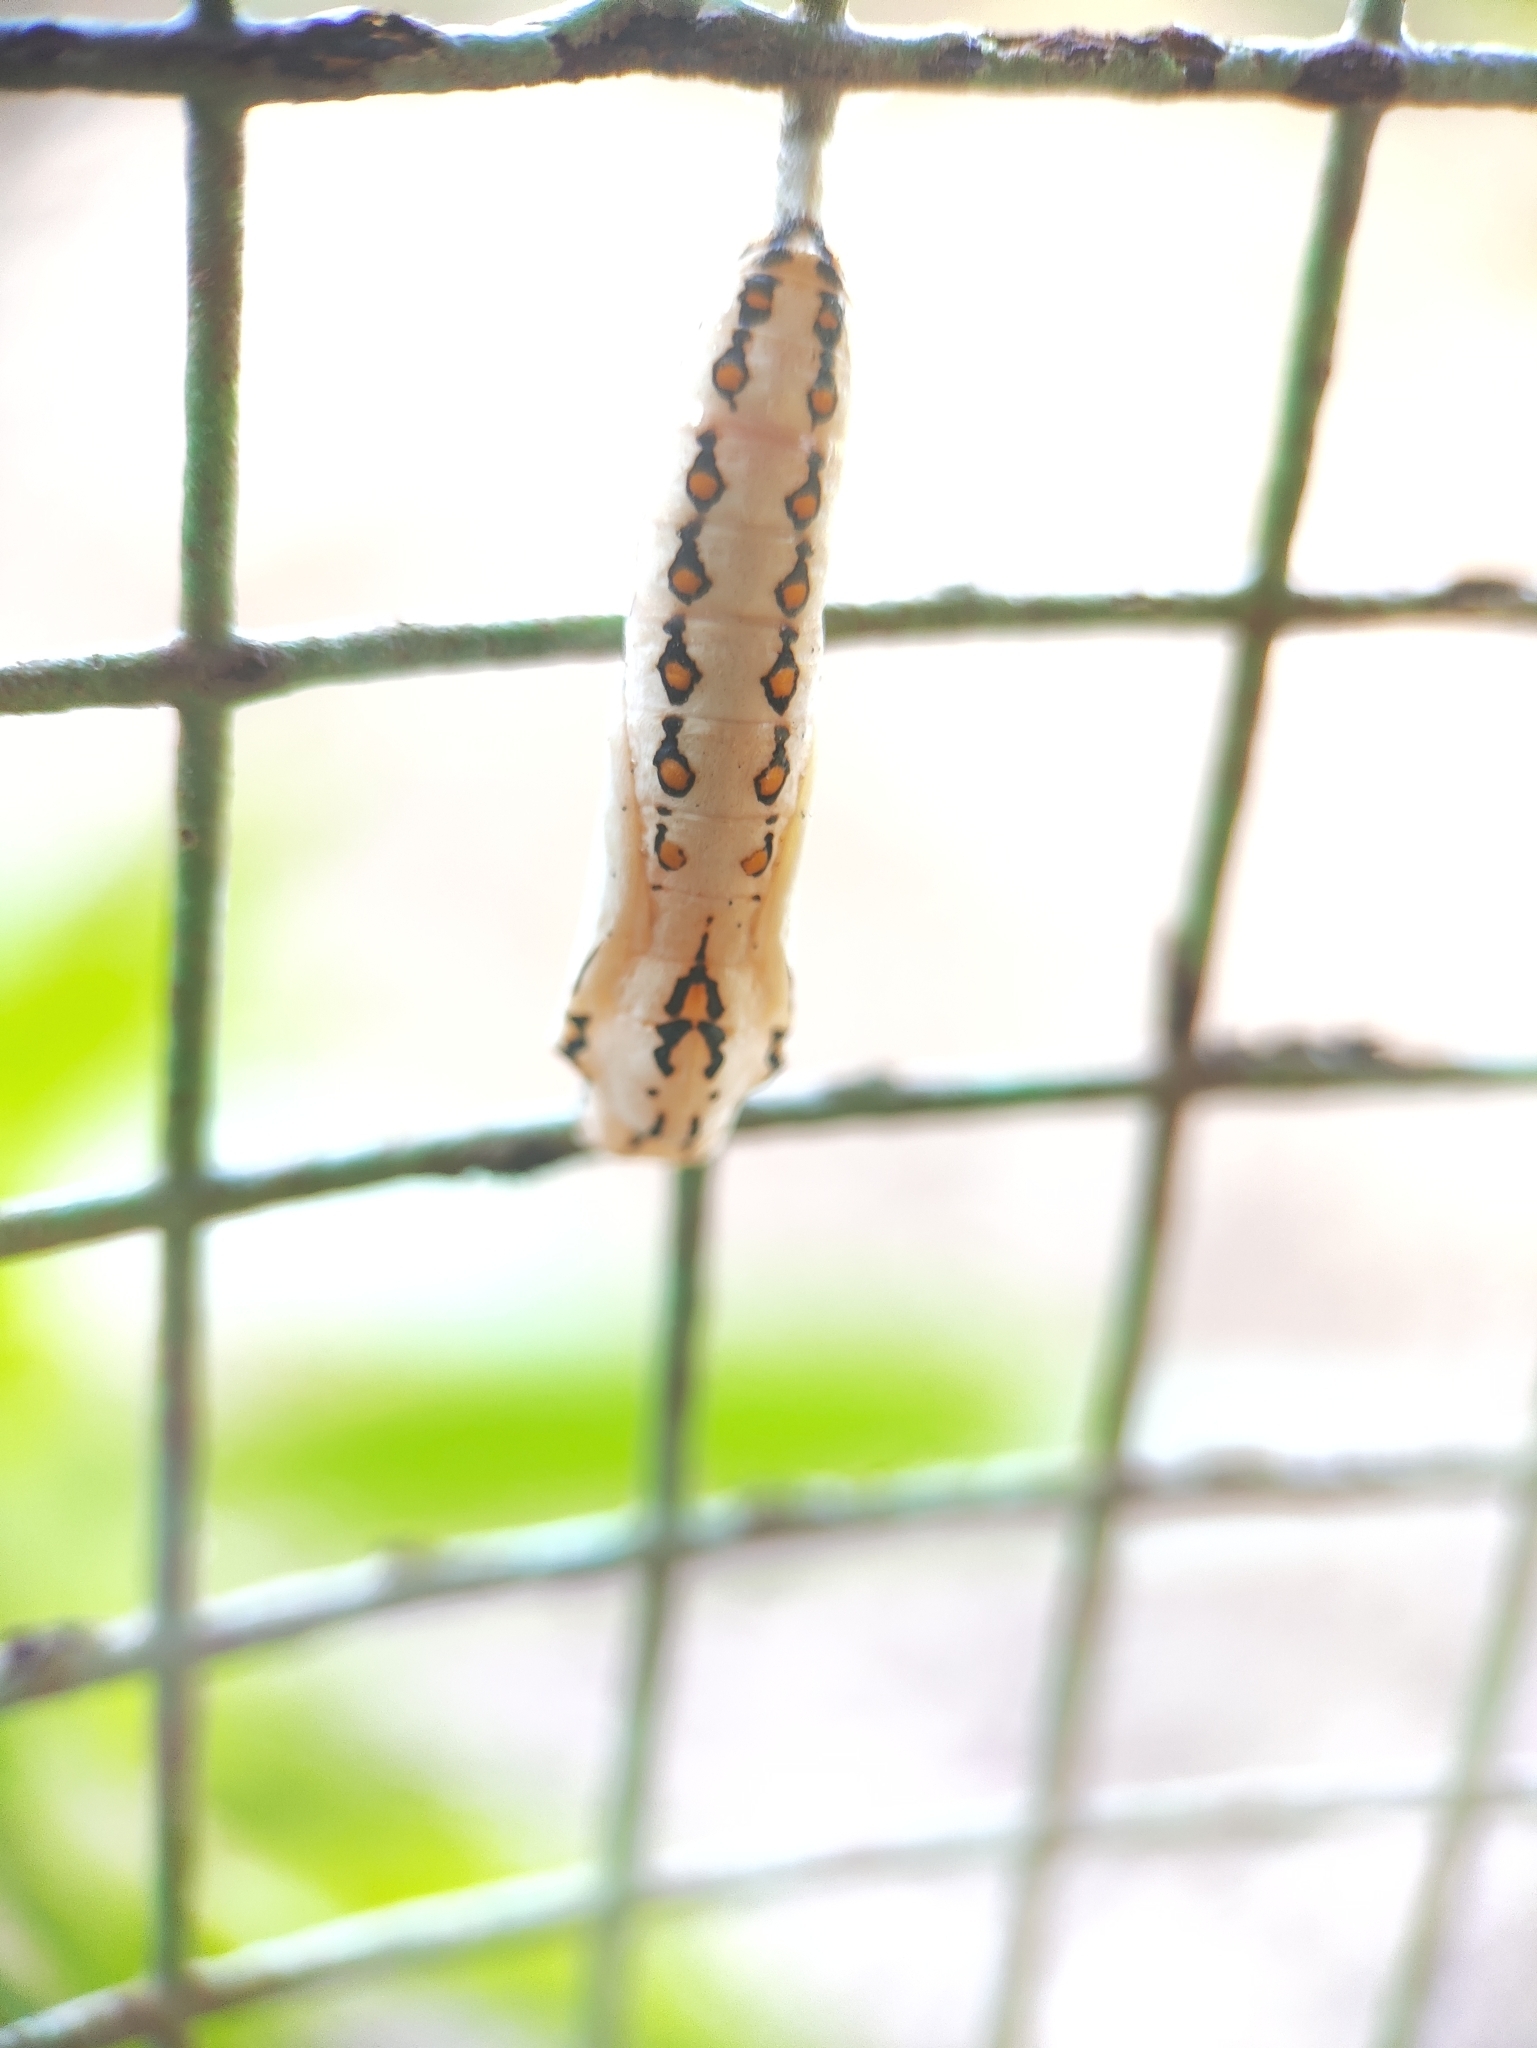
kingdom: Animalia
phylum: Arthropoda
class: Insecta
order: Lepidoptera
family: Nymphalidae
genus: Acraea
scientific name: Acraea terpsicore
